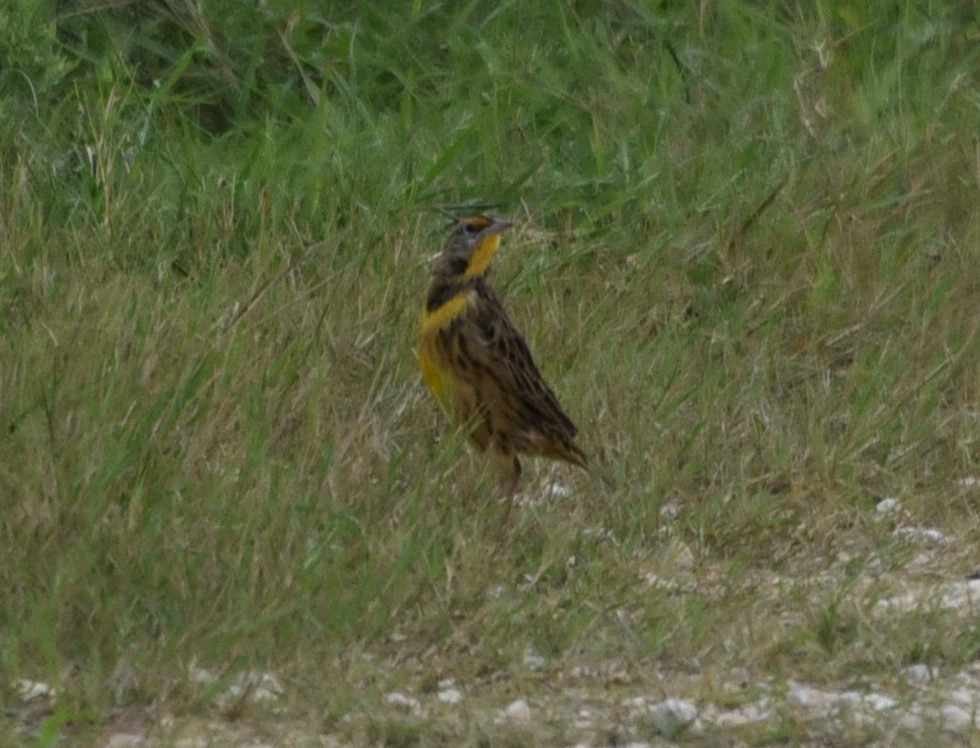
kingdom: Animalia
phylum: Chordata
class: Aves
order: Passeriformes
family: Icteridae
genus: Sturnella
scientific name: Sturnella magna
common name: Eastern meadowlark
